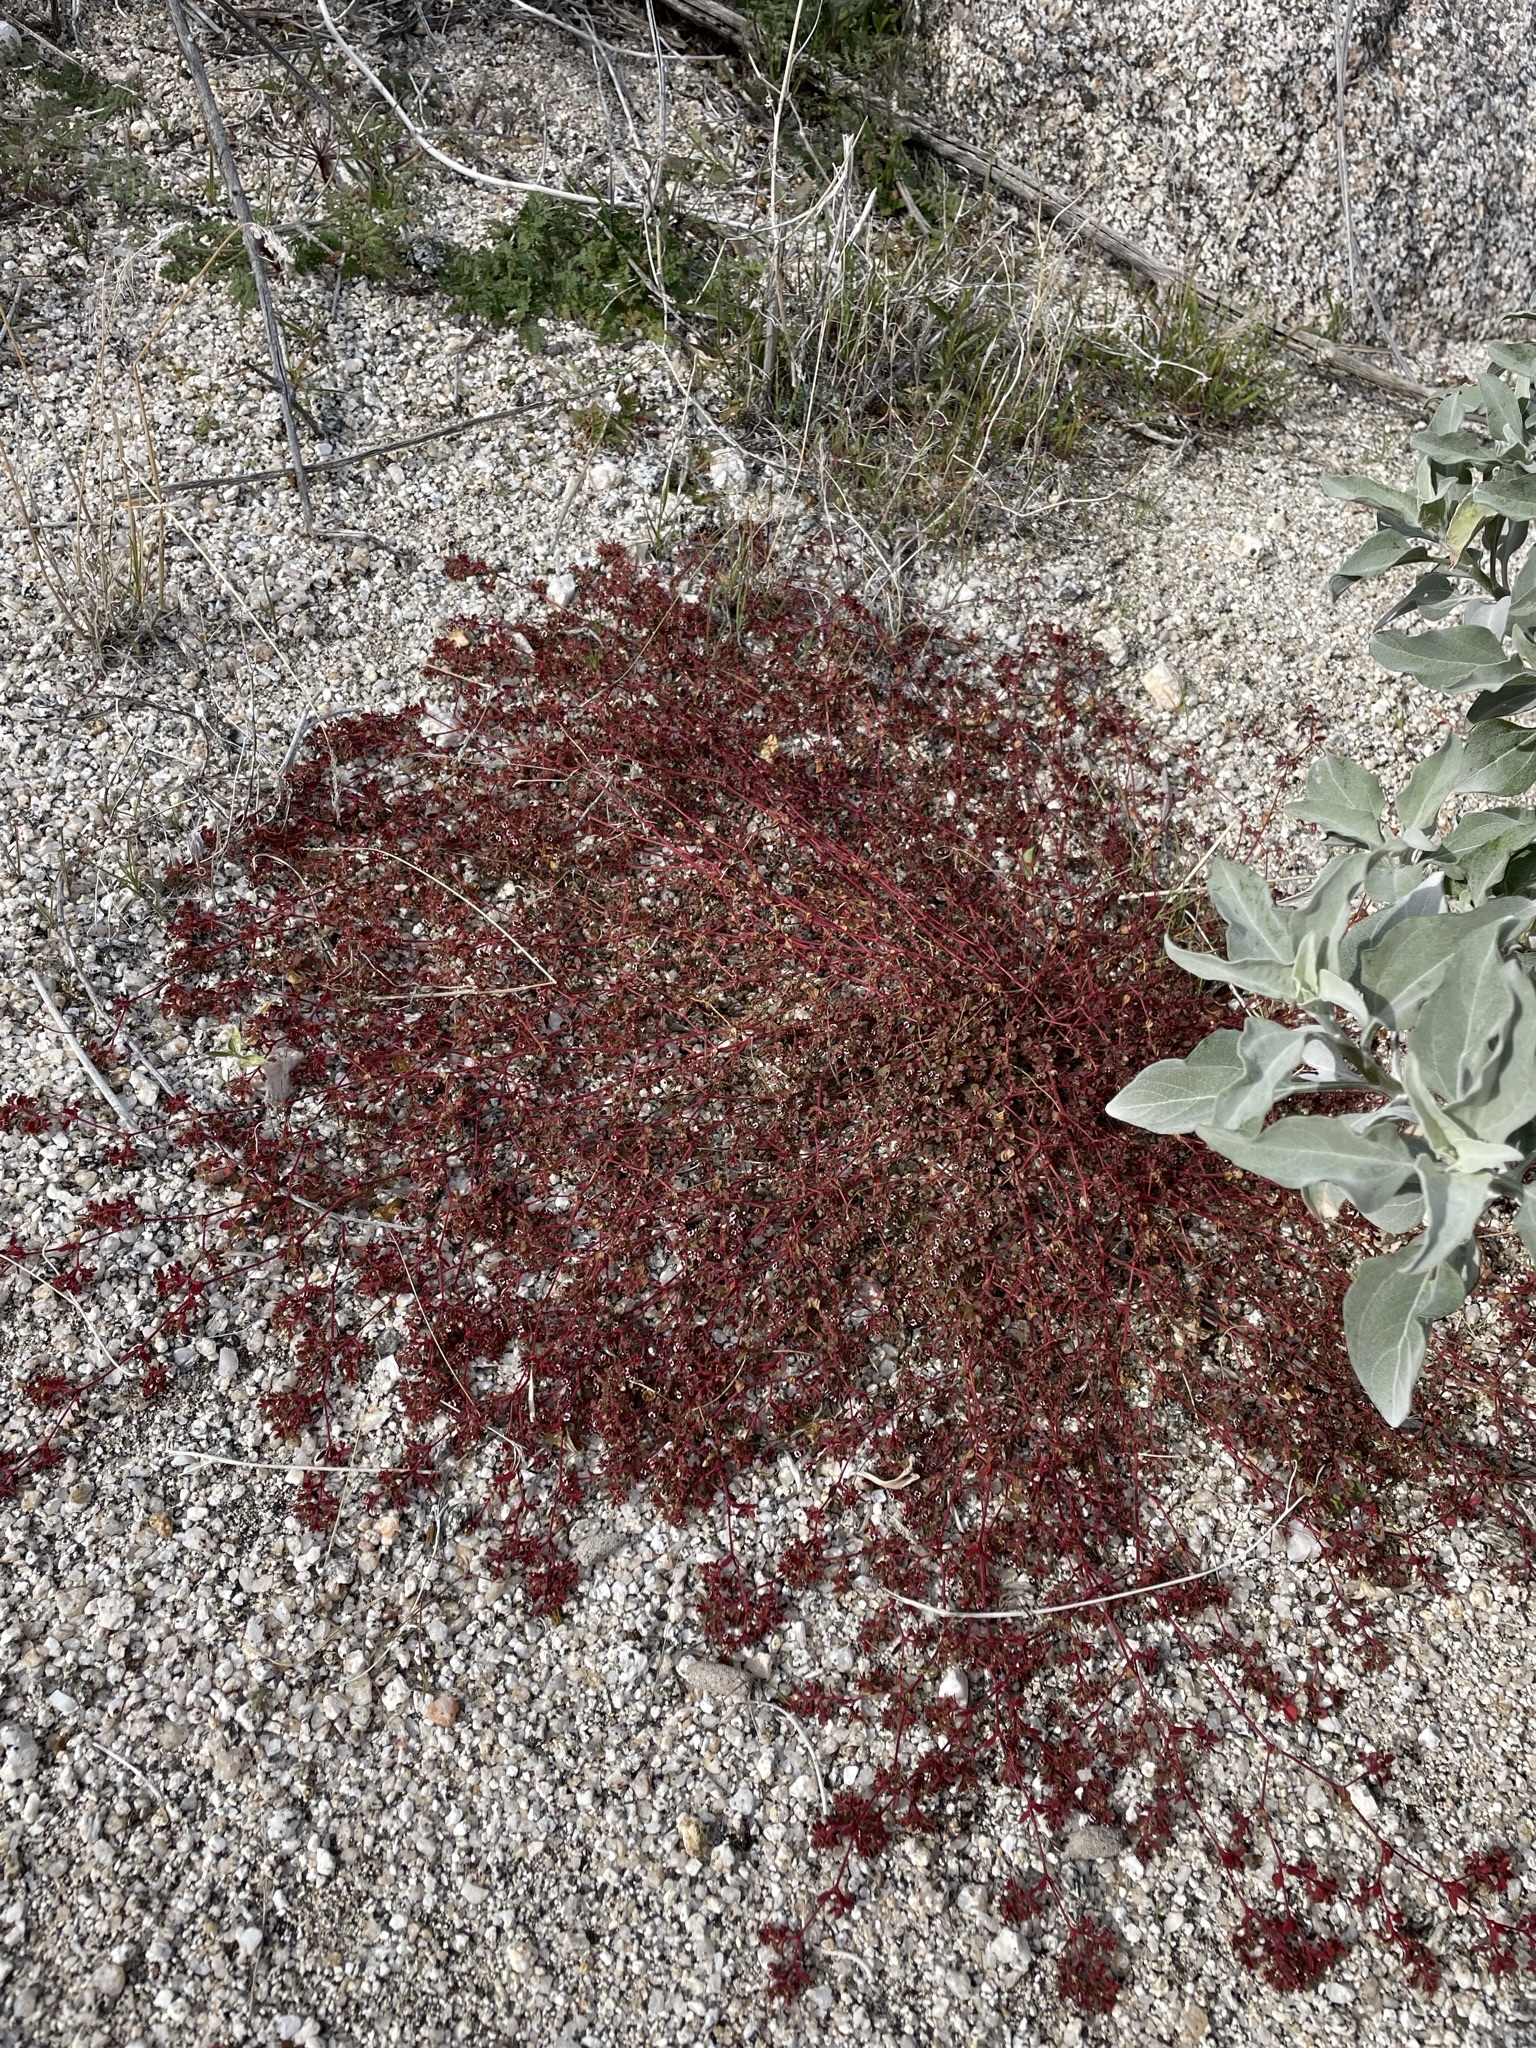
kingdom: Plantae
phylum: Tracheophyta
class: Magnoliopsida
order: Malpighiales
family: Euphorbiaceae
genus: Euphorbia
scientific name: Euphorbia arizonica
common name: Arizona spurge
